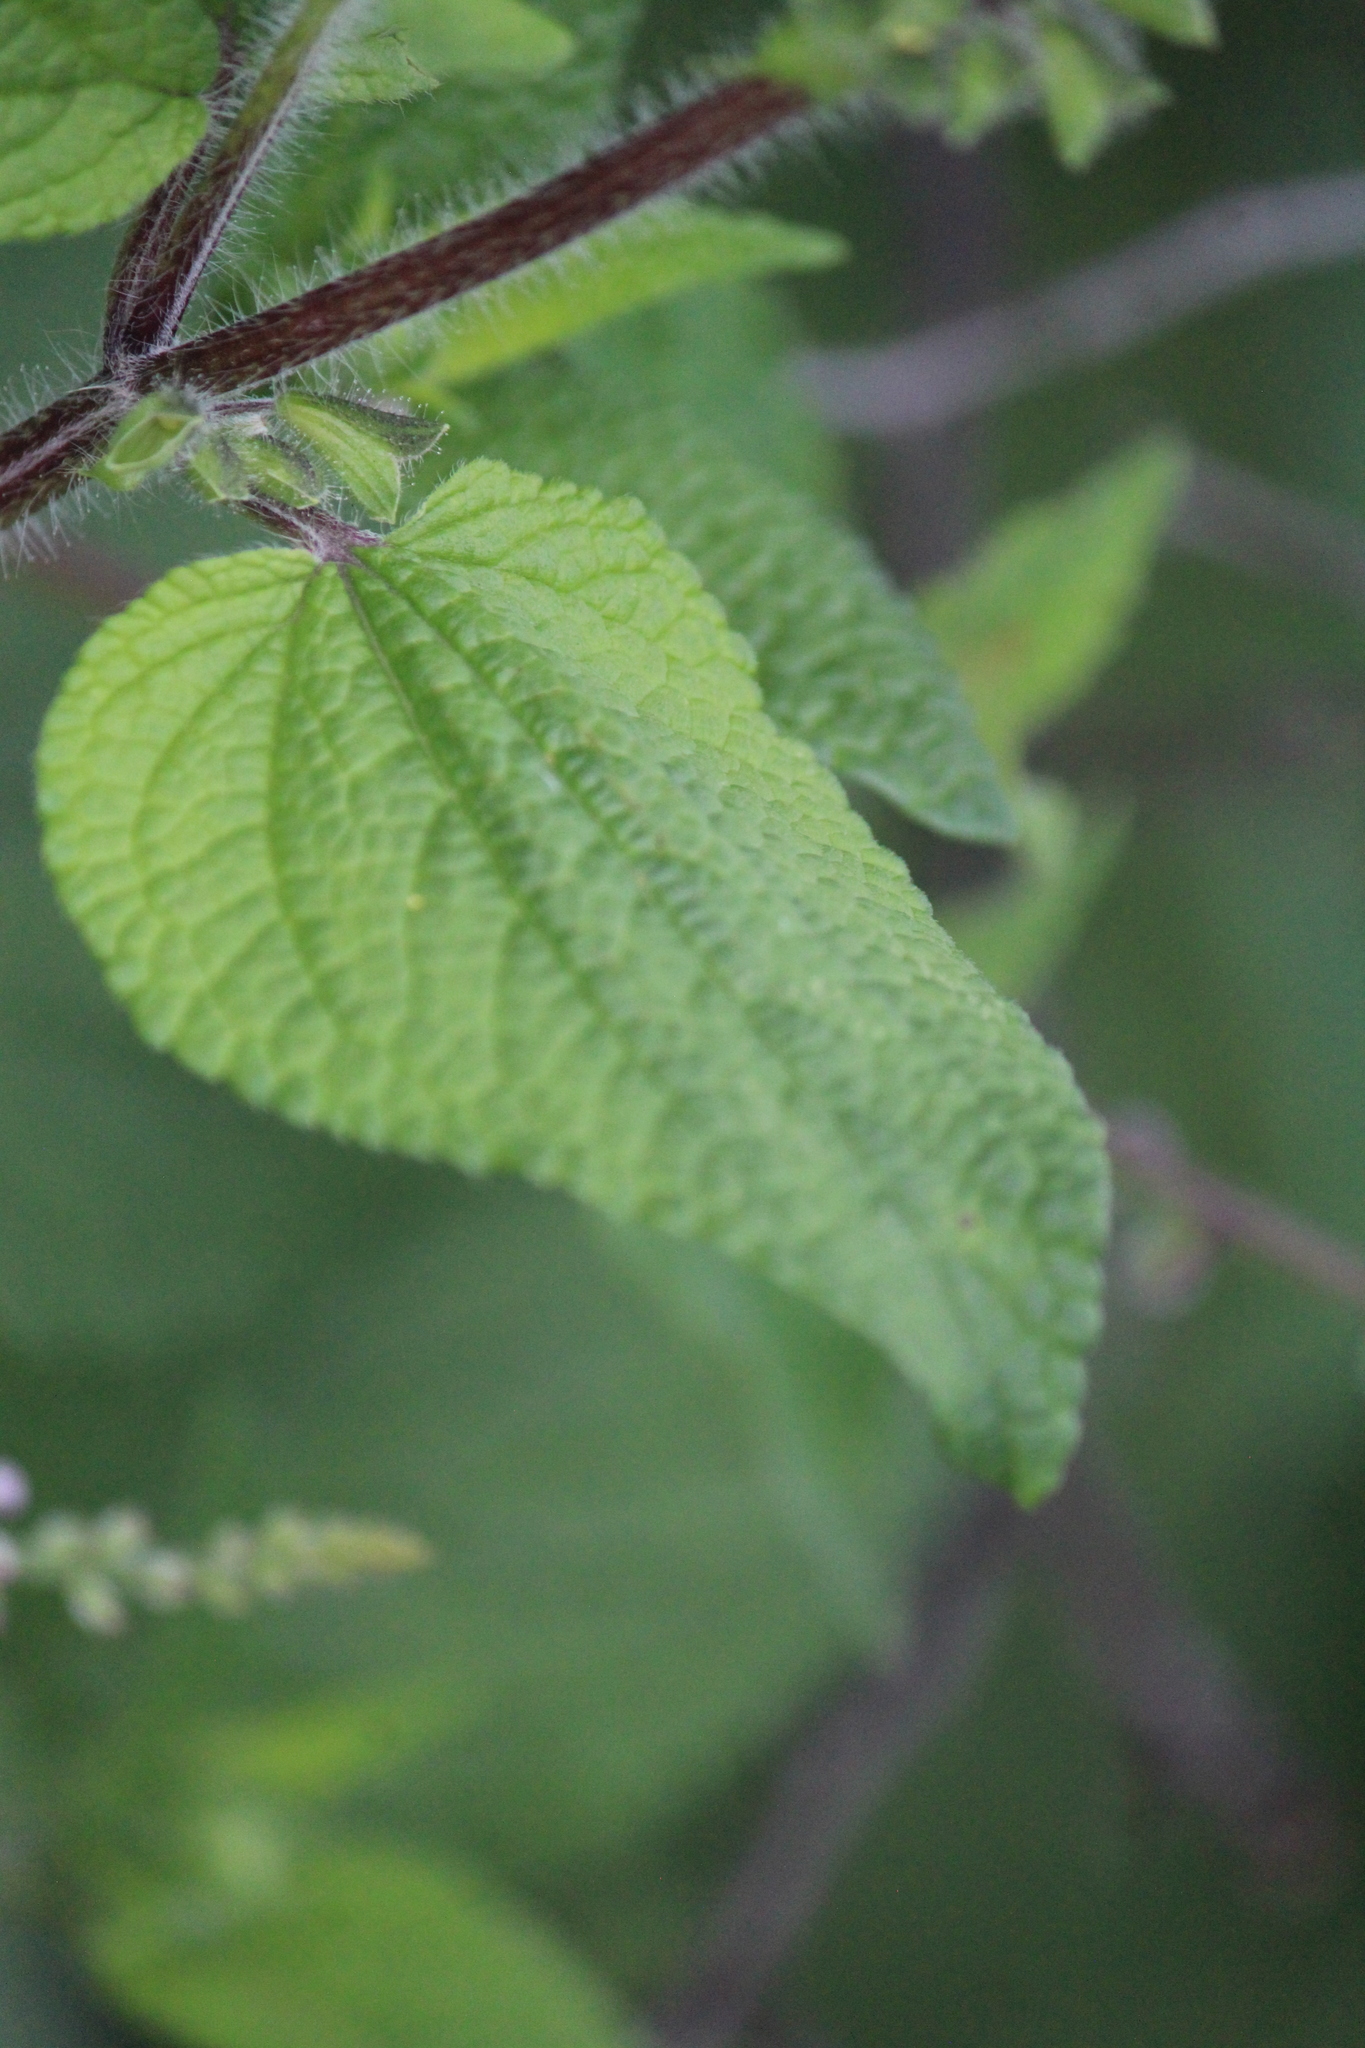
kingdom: Plantae
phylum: Tracheophyta
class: Magnoliopsida
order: Lamiales
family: Lamiaceae
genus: Salvia
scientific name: Salvia circinnata
